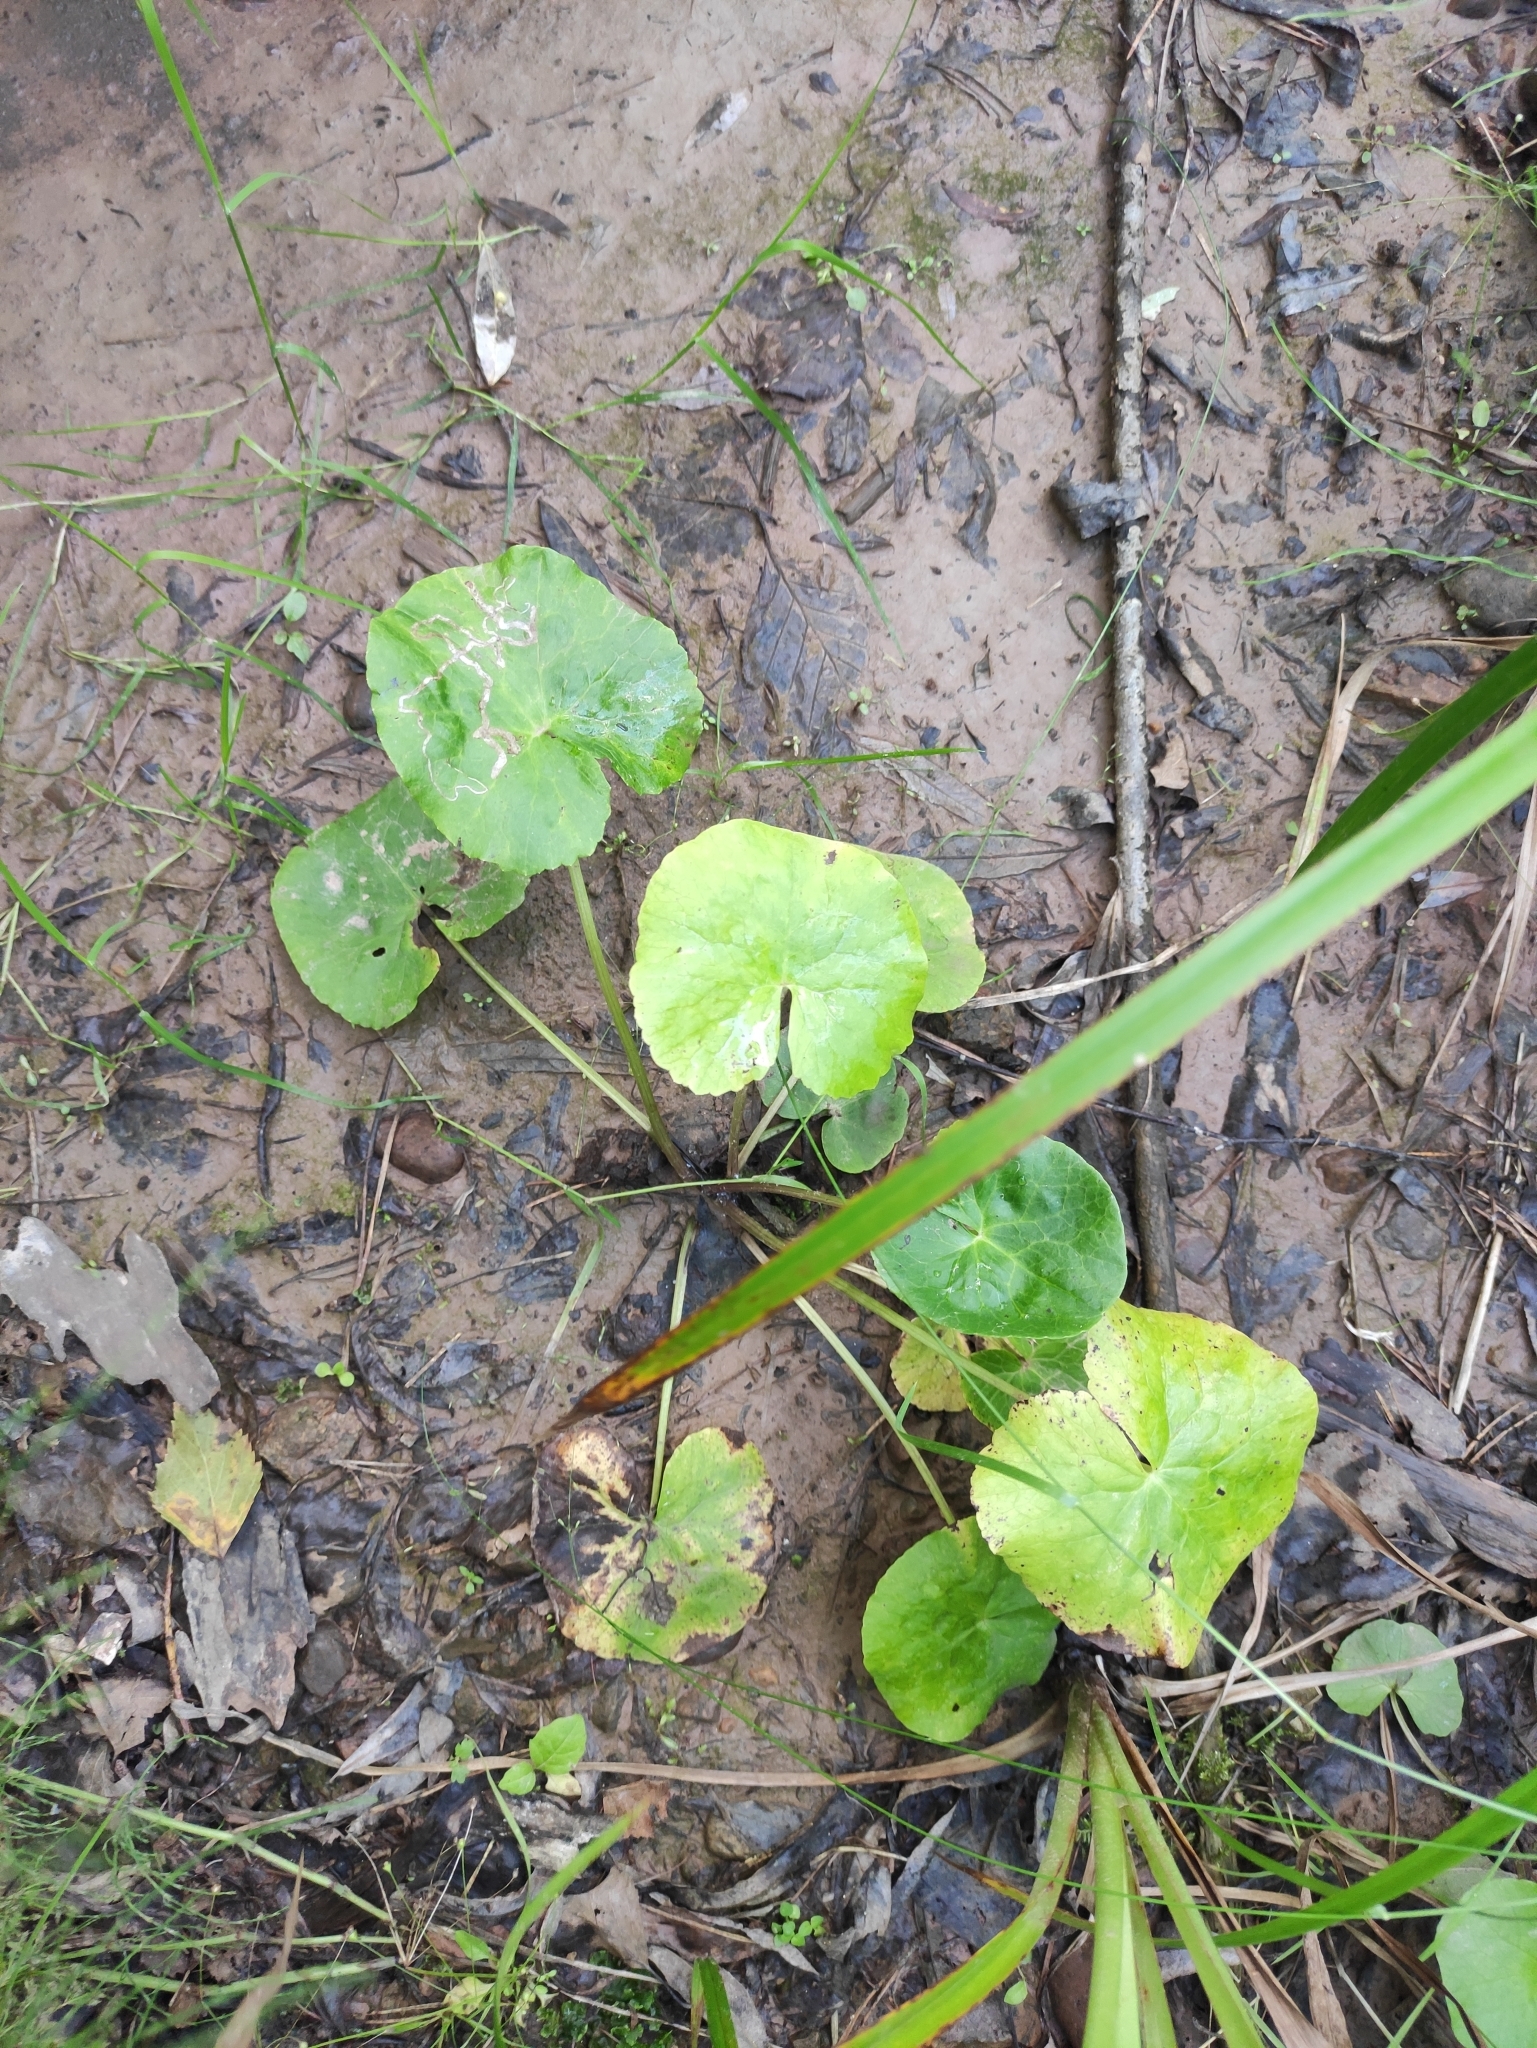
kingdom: Plantae
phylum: Tracheophyta
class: Magnoliopsida
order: Ranunculales
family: Ranunculaceae
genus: Caltha
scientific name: Caltha palustris
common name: Marsh marigold
